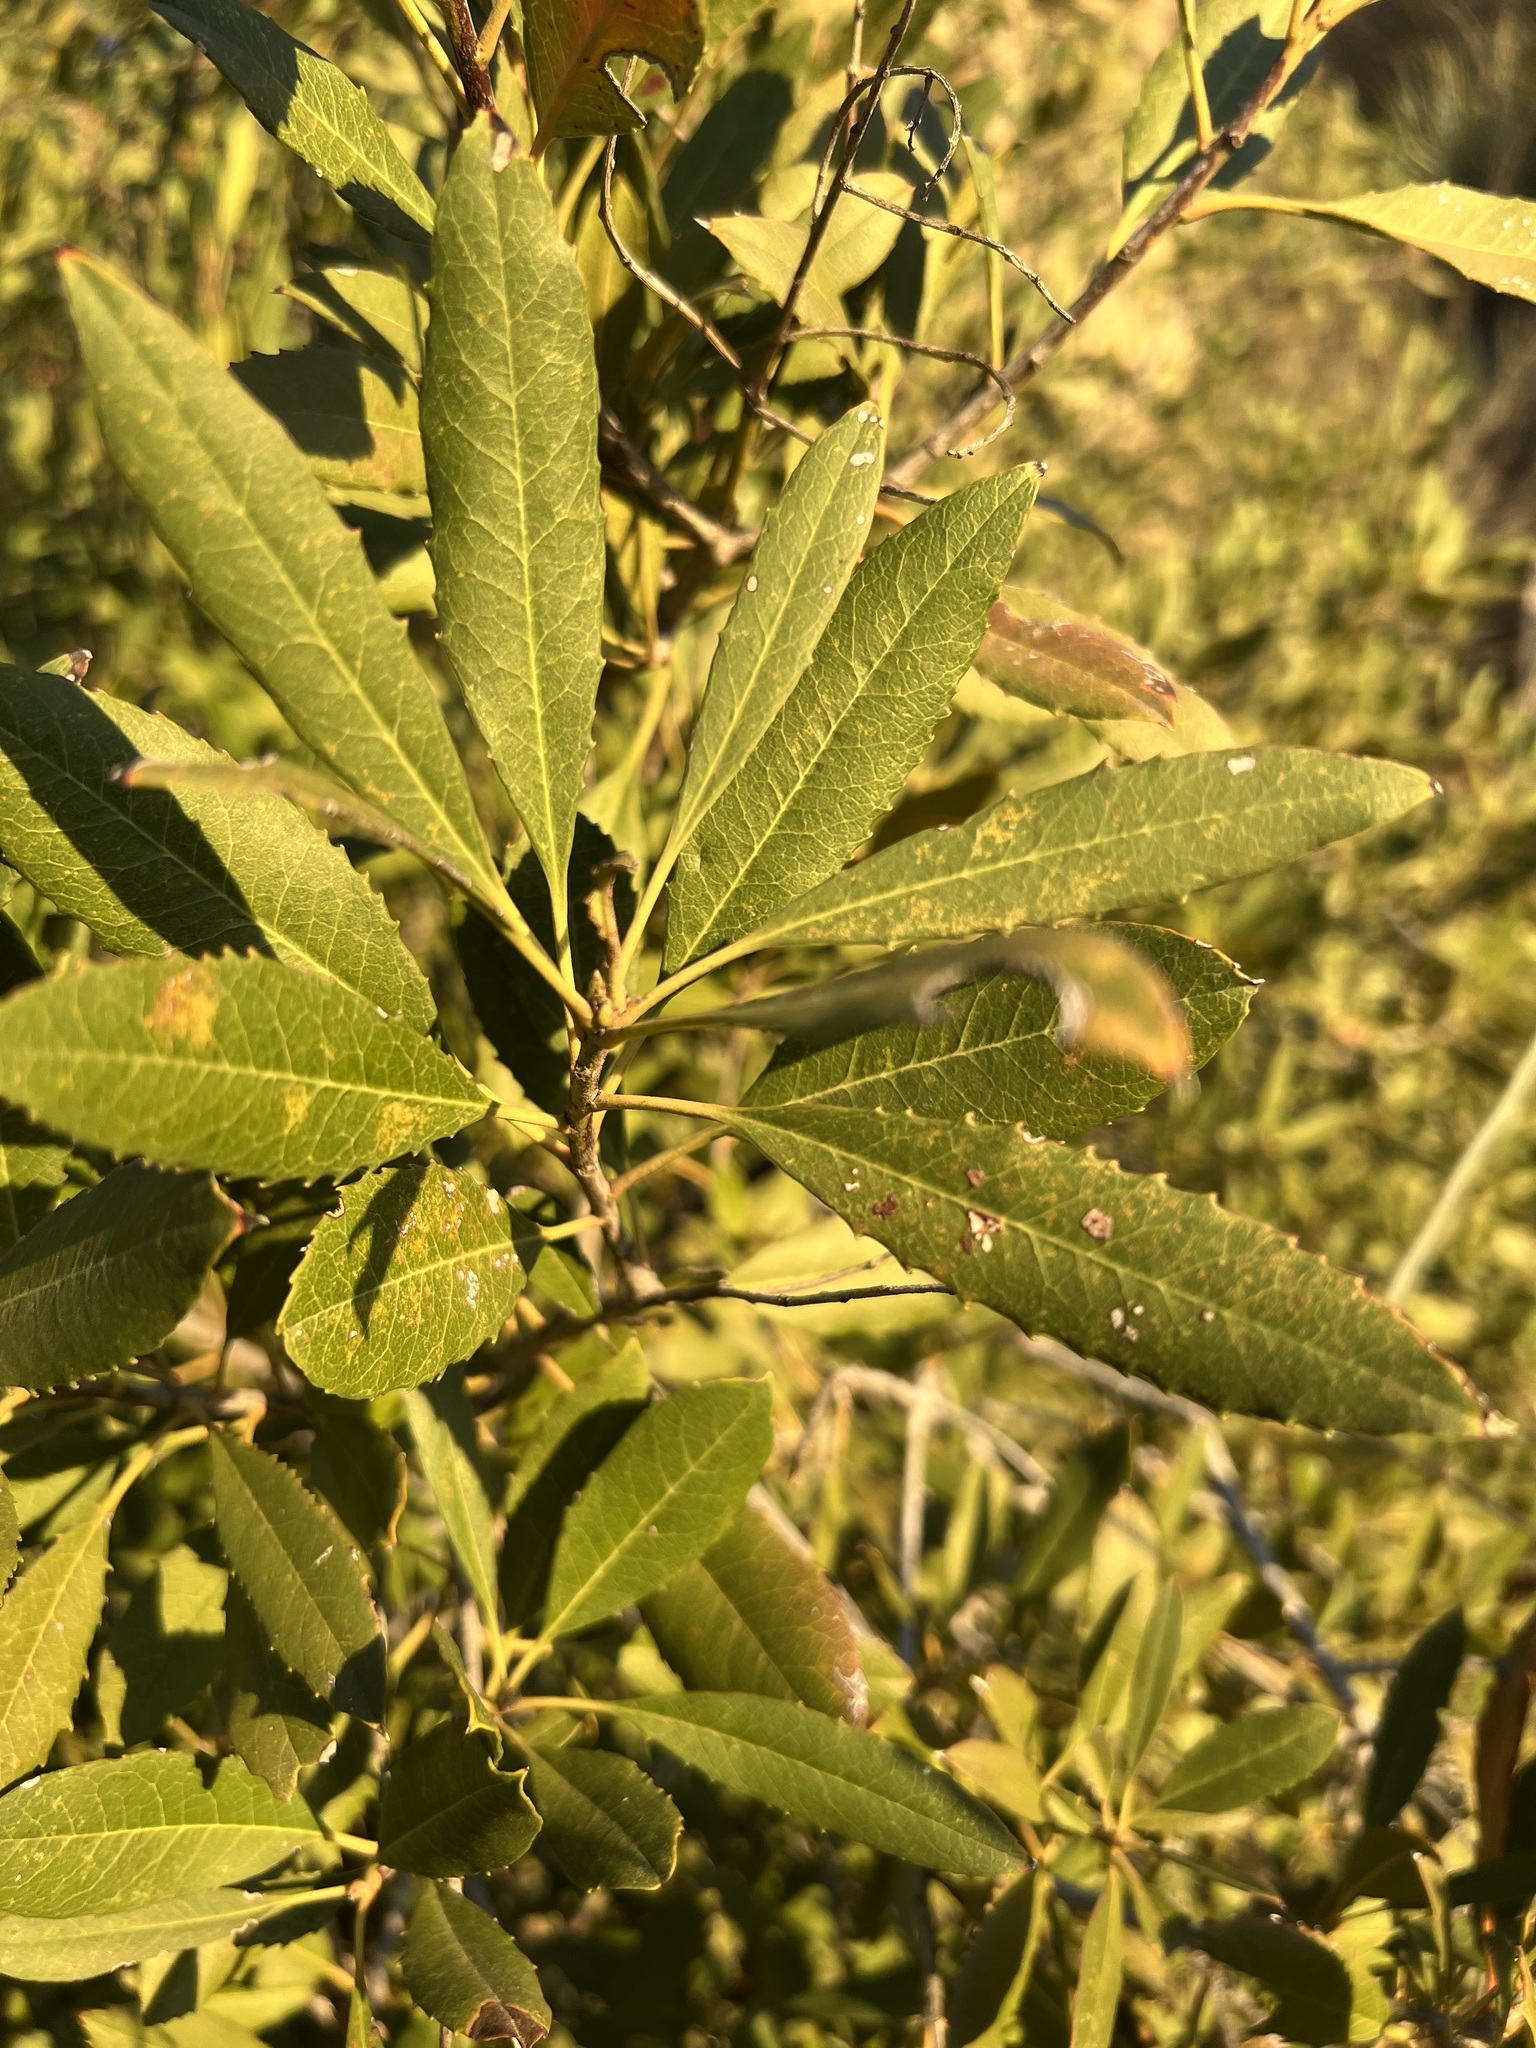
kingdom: Plantae
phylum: Tracheophyta
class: Magnoliopsida
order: Rosales
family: Rosaceae
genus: Heteromeles
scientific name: Heteromeles arbutifolia
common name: California-holly
